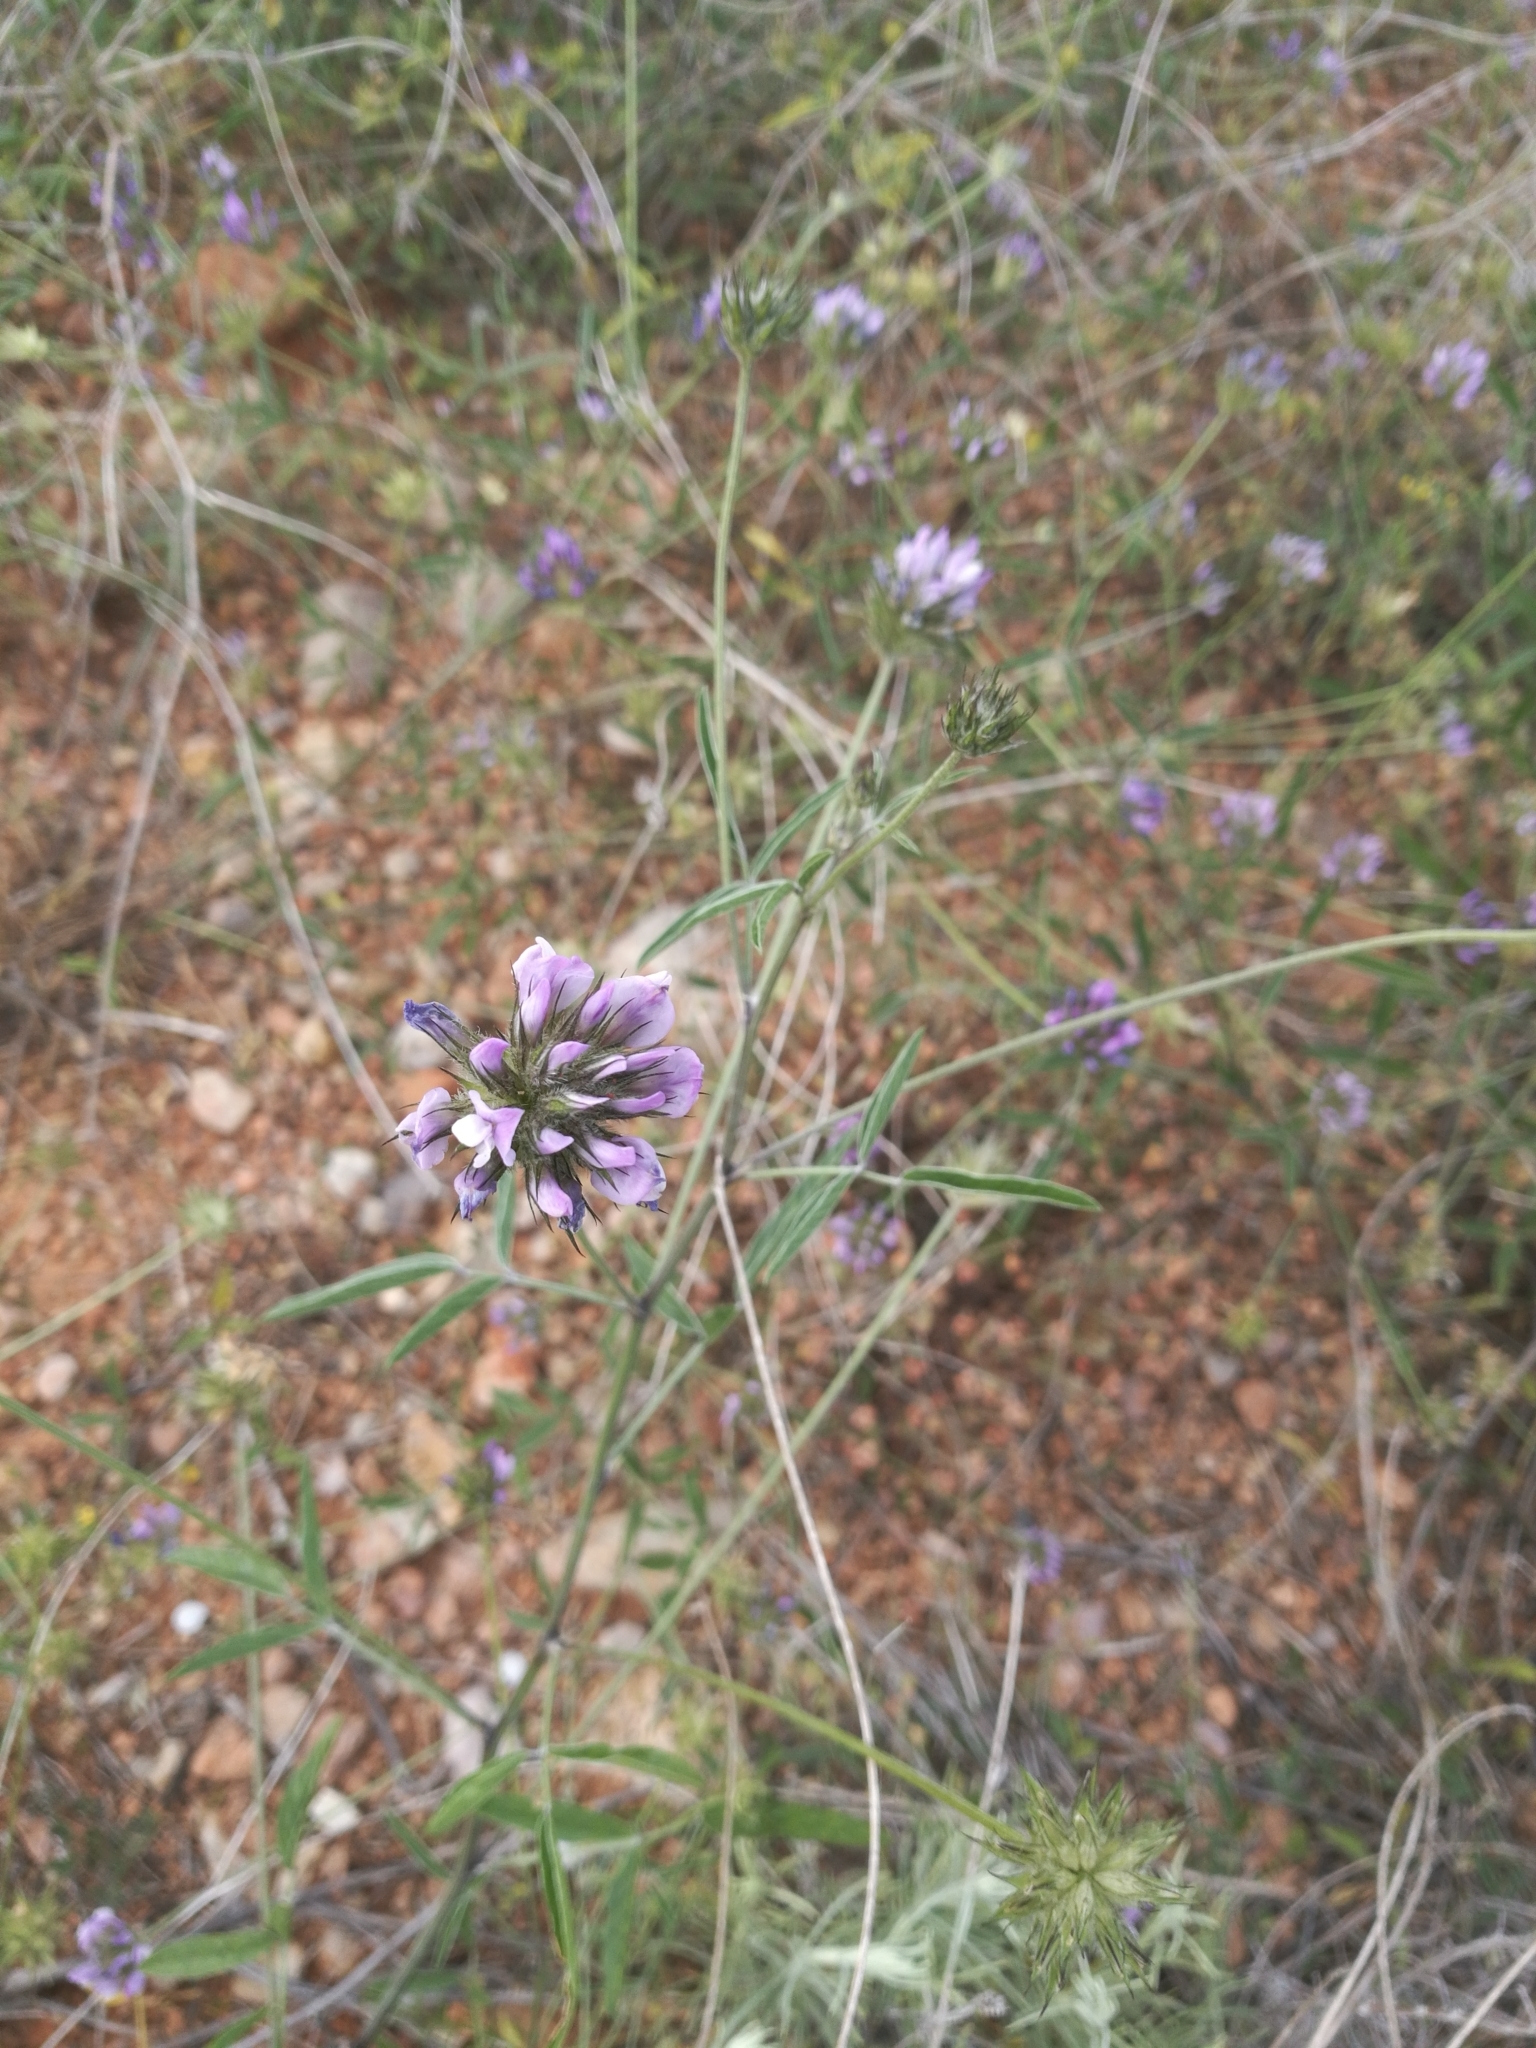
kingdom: Plantae
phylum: Tracheophyta
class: Magnoliopsida
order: Fabales
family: Fabaceae
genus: Bituminaria
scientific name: Bituminaria bituminosa
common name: Arabian pea
